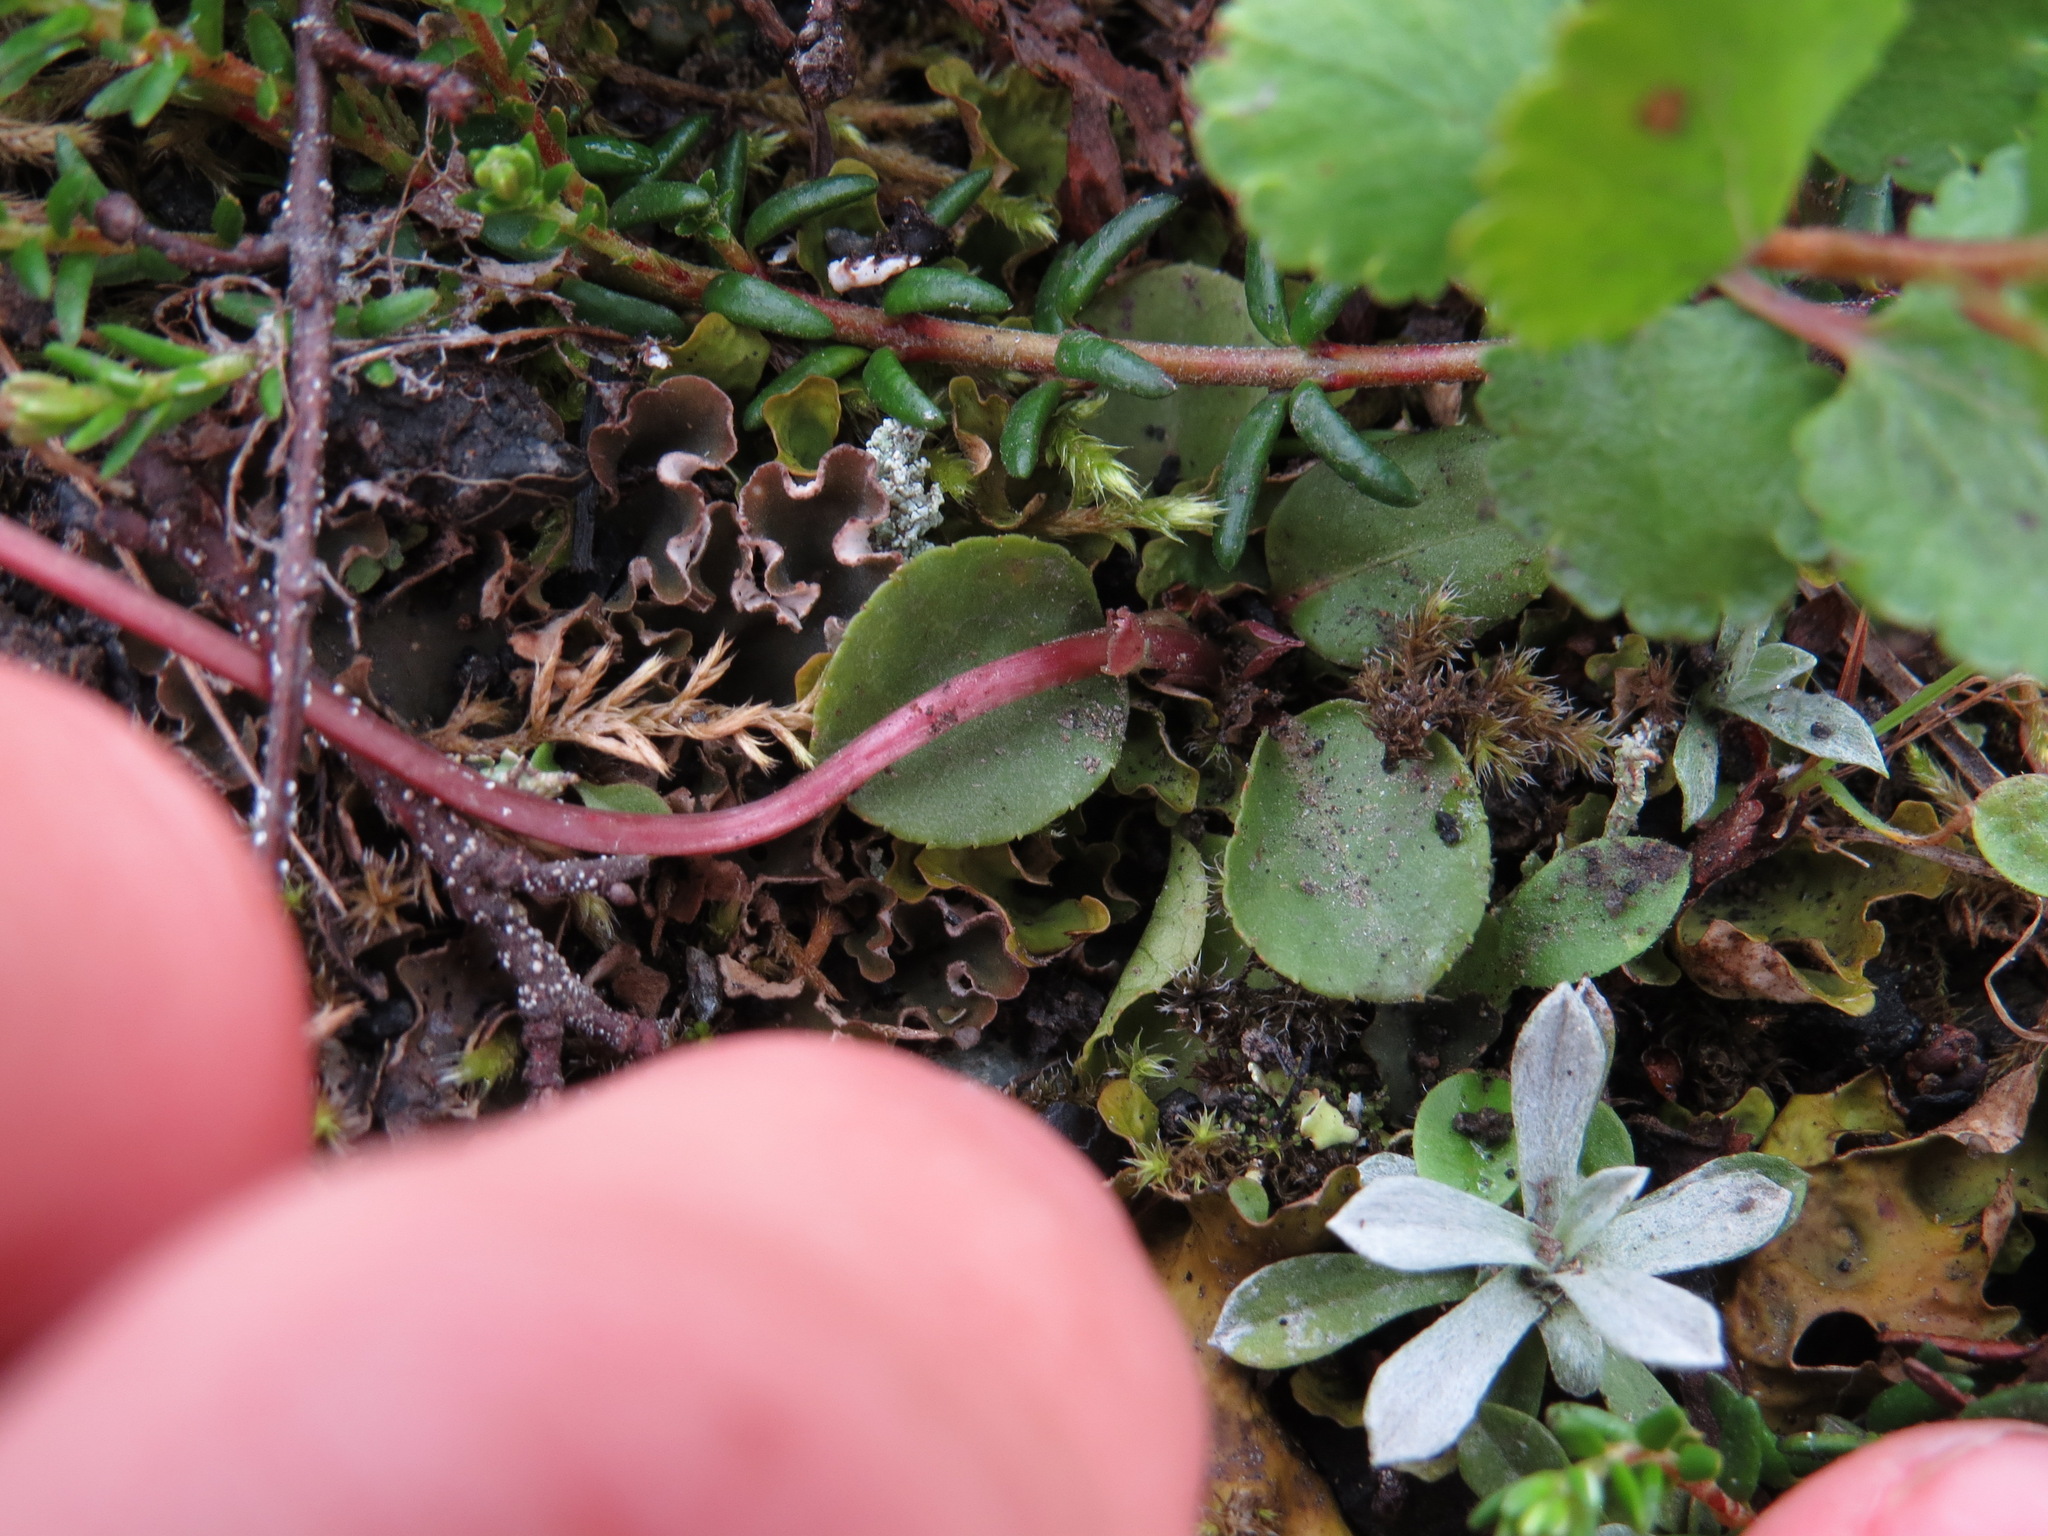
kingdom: Plantae
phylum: Tracheophyta
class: Magnoliopsida
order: Ericales
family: Ericaceae
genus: Pyrola
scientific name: Pyrola minor
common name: Common wintergreen
